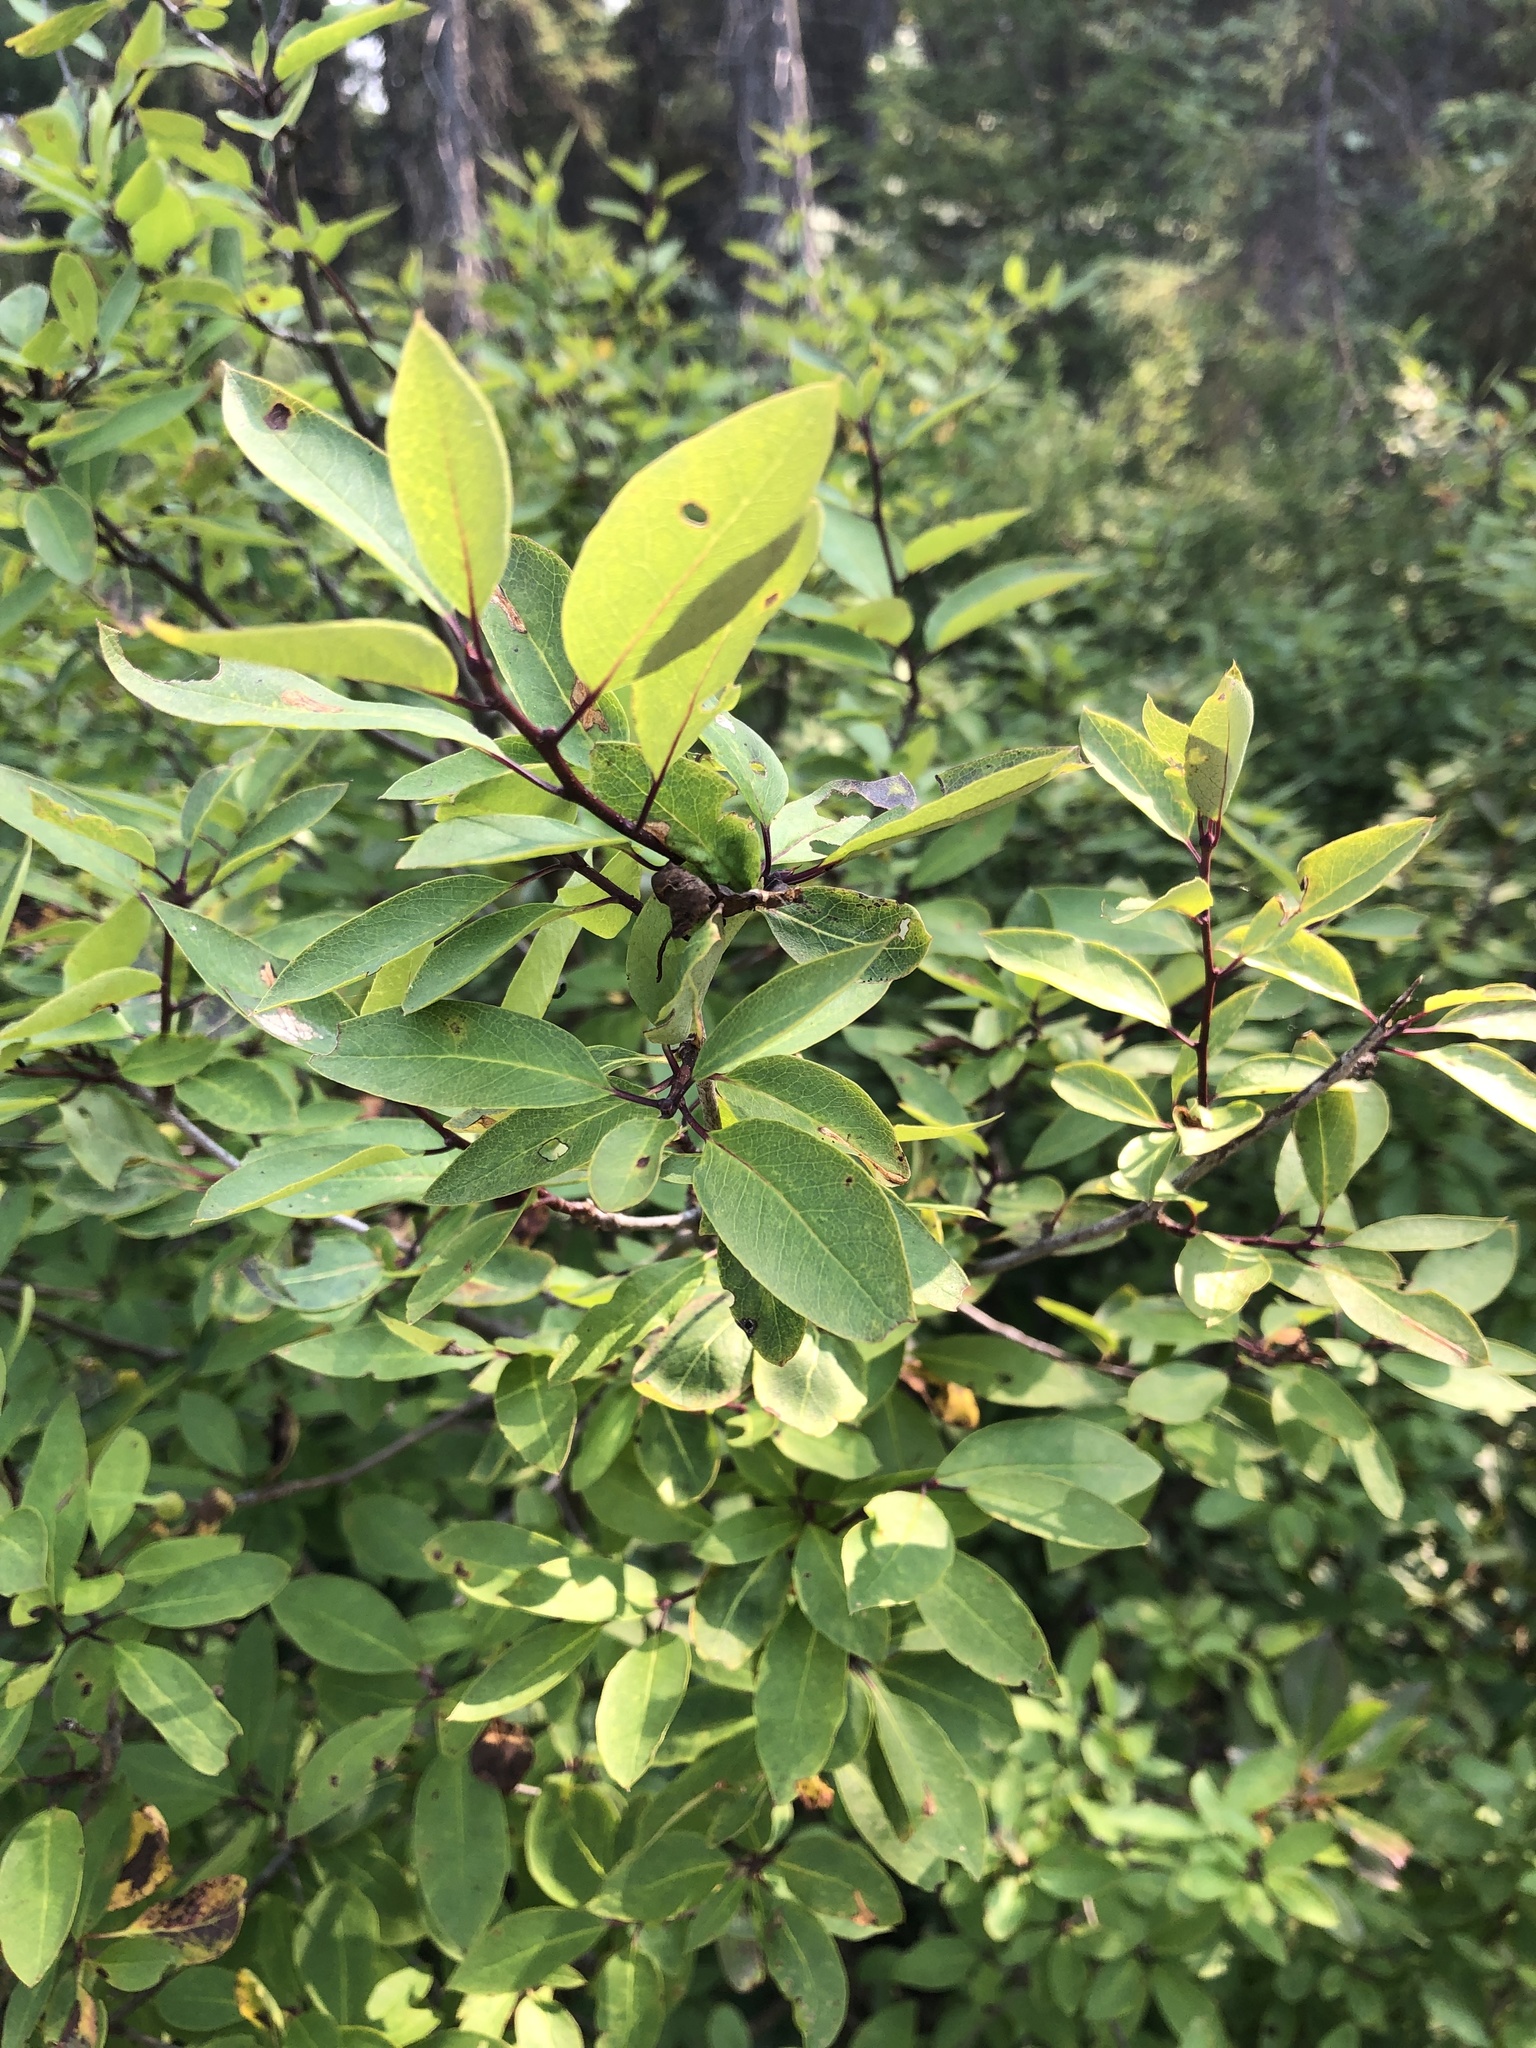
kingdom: Plantae
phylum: Tracheophyta
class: Magnoliopsida
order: Aquifoliales
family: Aquifoliaceae
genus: Ilex
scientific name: Ilex mucronata
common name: Catberry
